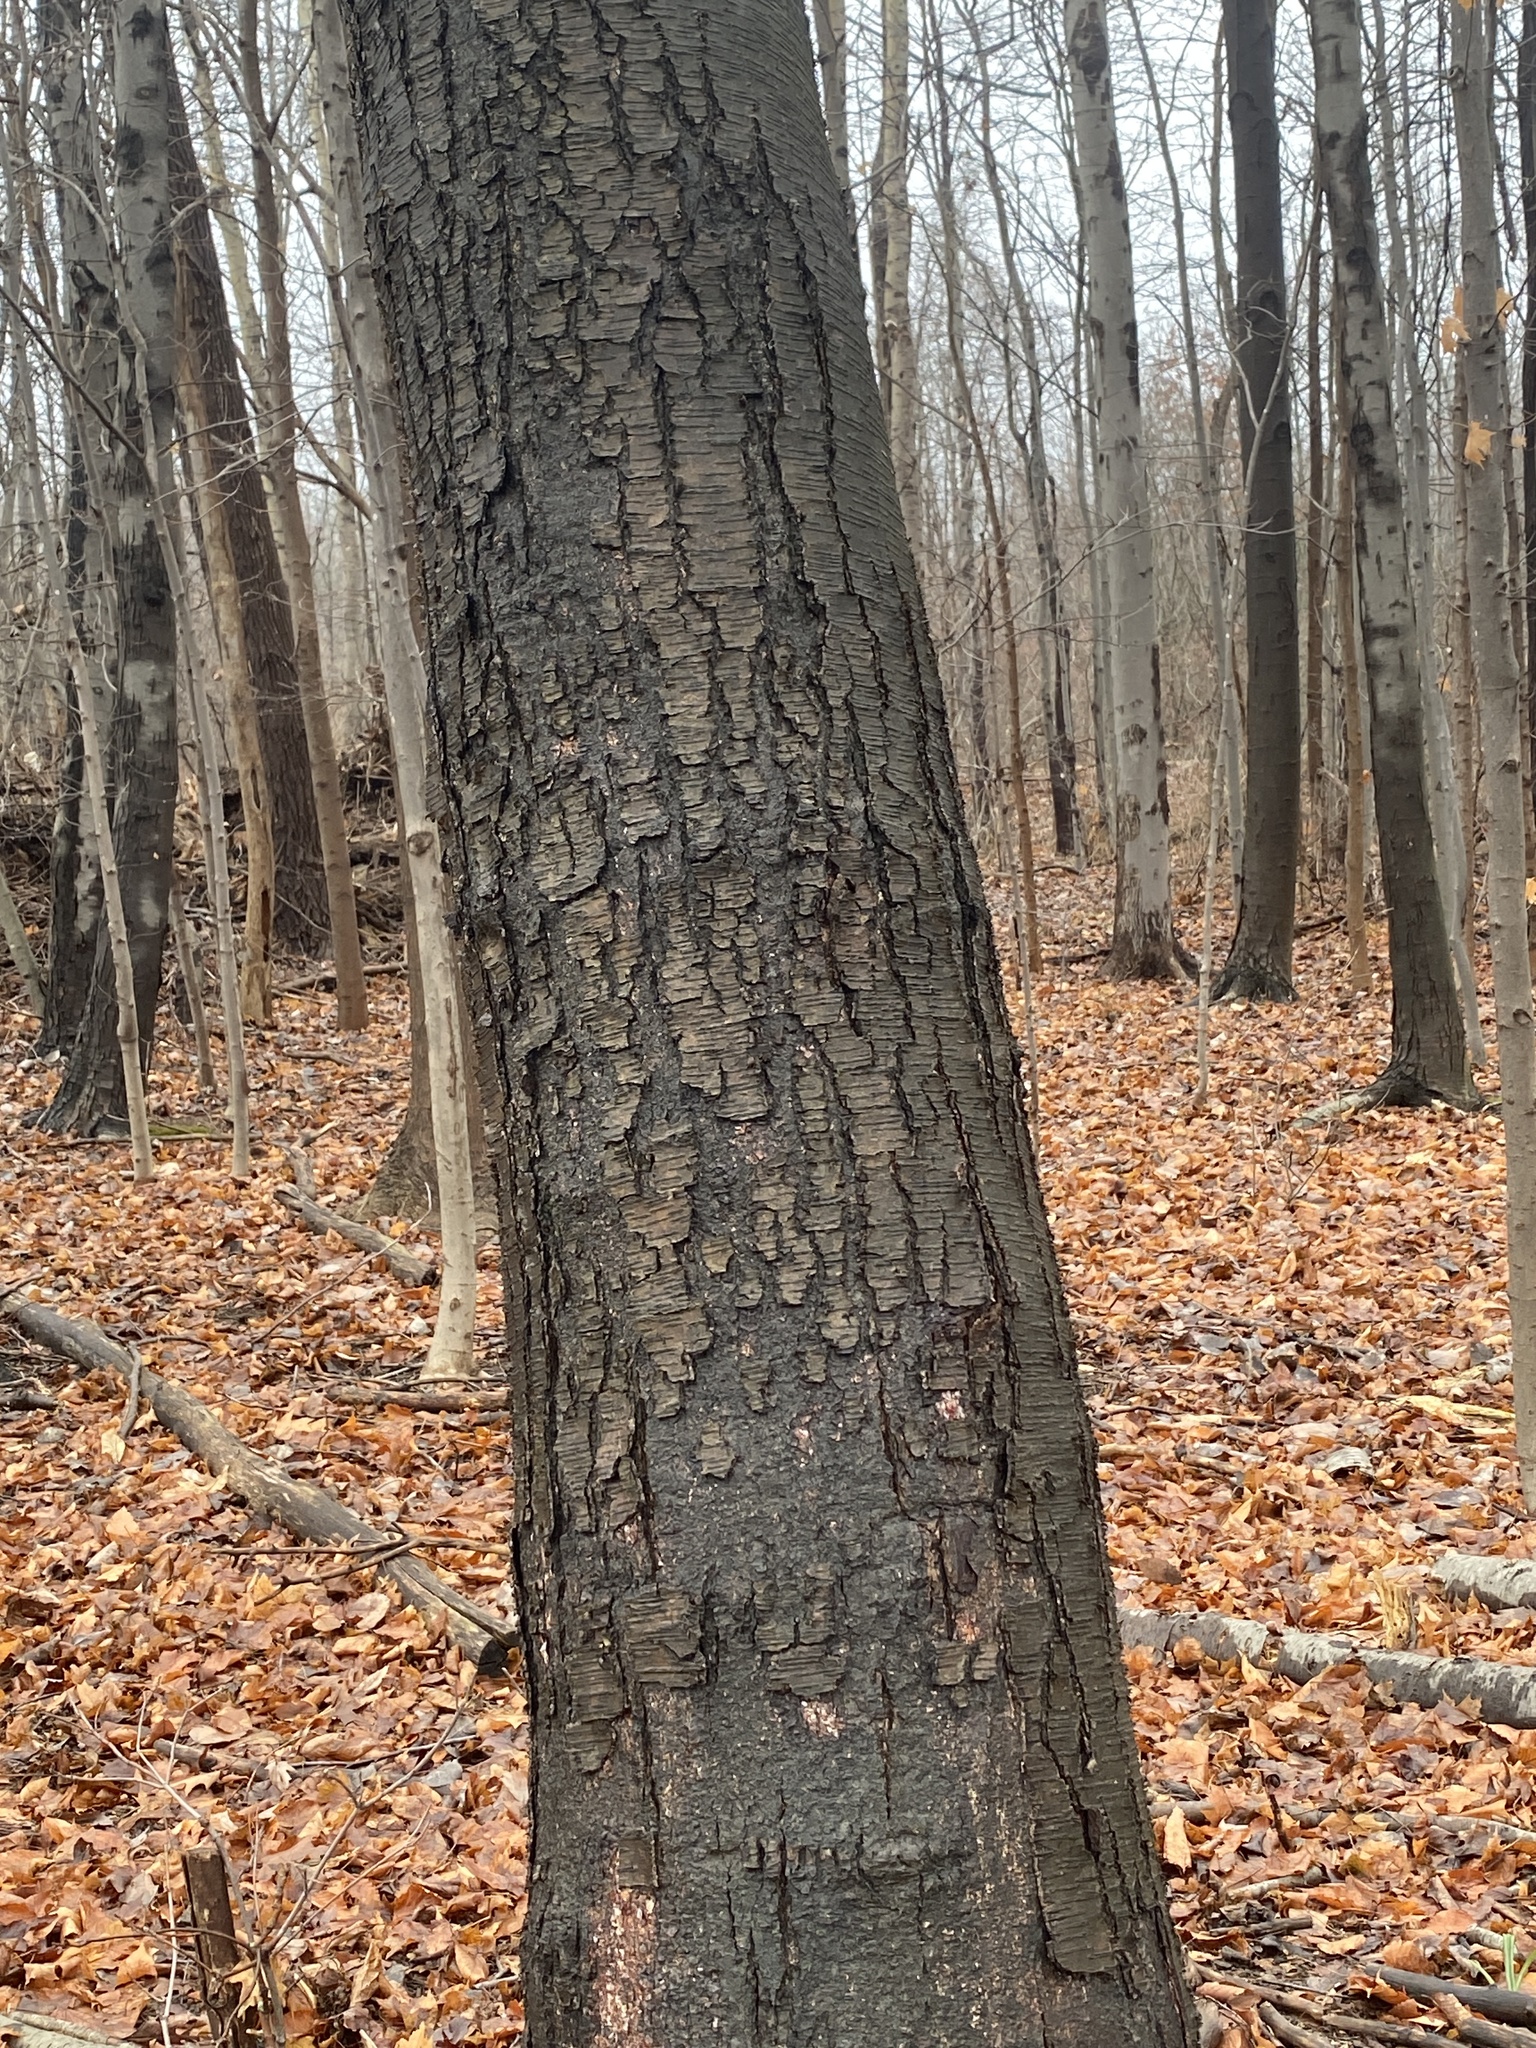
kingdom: Plantae
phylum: Tracheophyta
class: Magnoliopsida
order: Fagales
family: Betulaceae
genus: Betula
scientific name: Betula lenta
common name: Black birch
